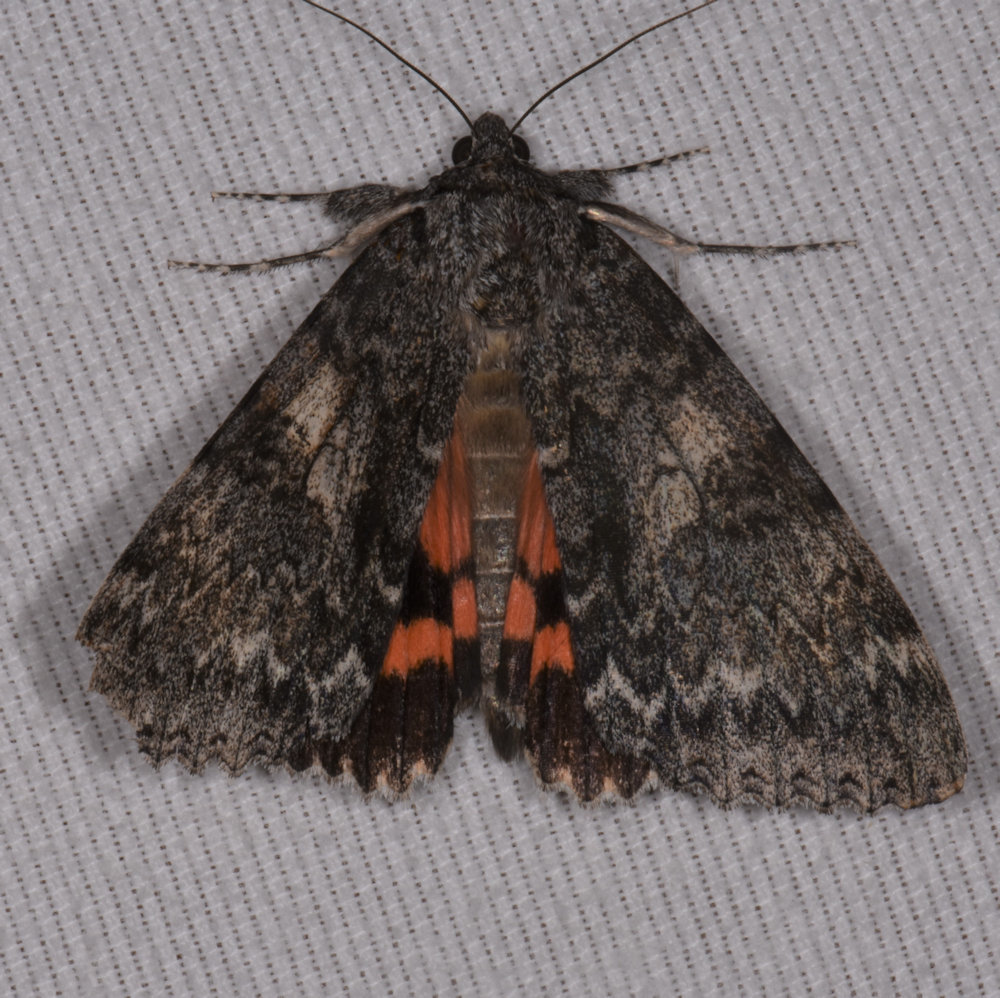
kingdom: Animalia
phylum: Arthropoda
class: Insecta
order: Lepidoptera
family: Erebidae
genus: Catocala
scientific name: Catocala unijuga
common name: Once-married underwing
